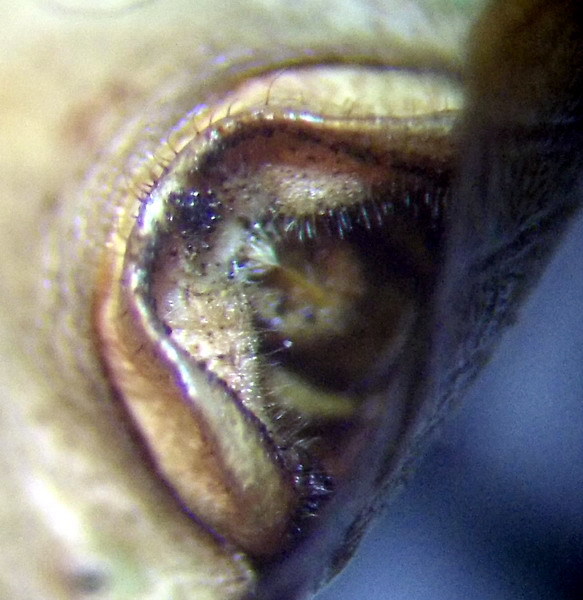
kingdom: Animalia
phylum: Arthropoda
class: Insecta
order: Hemiptera
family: Pentatomidae
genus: Palomena
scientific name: Palomena prasina
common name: Green shieldbug
